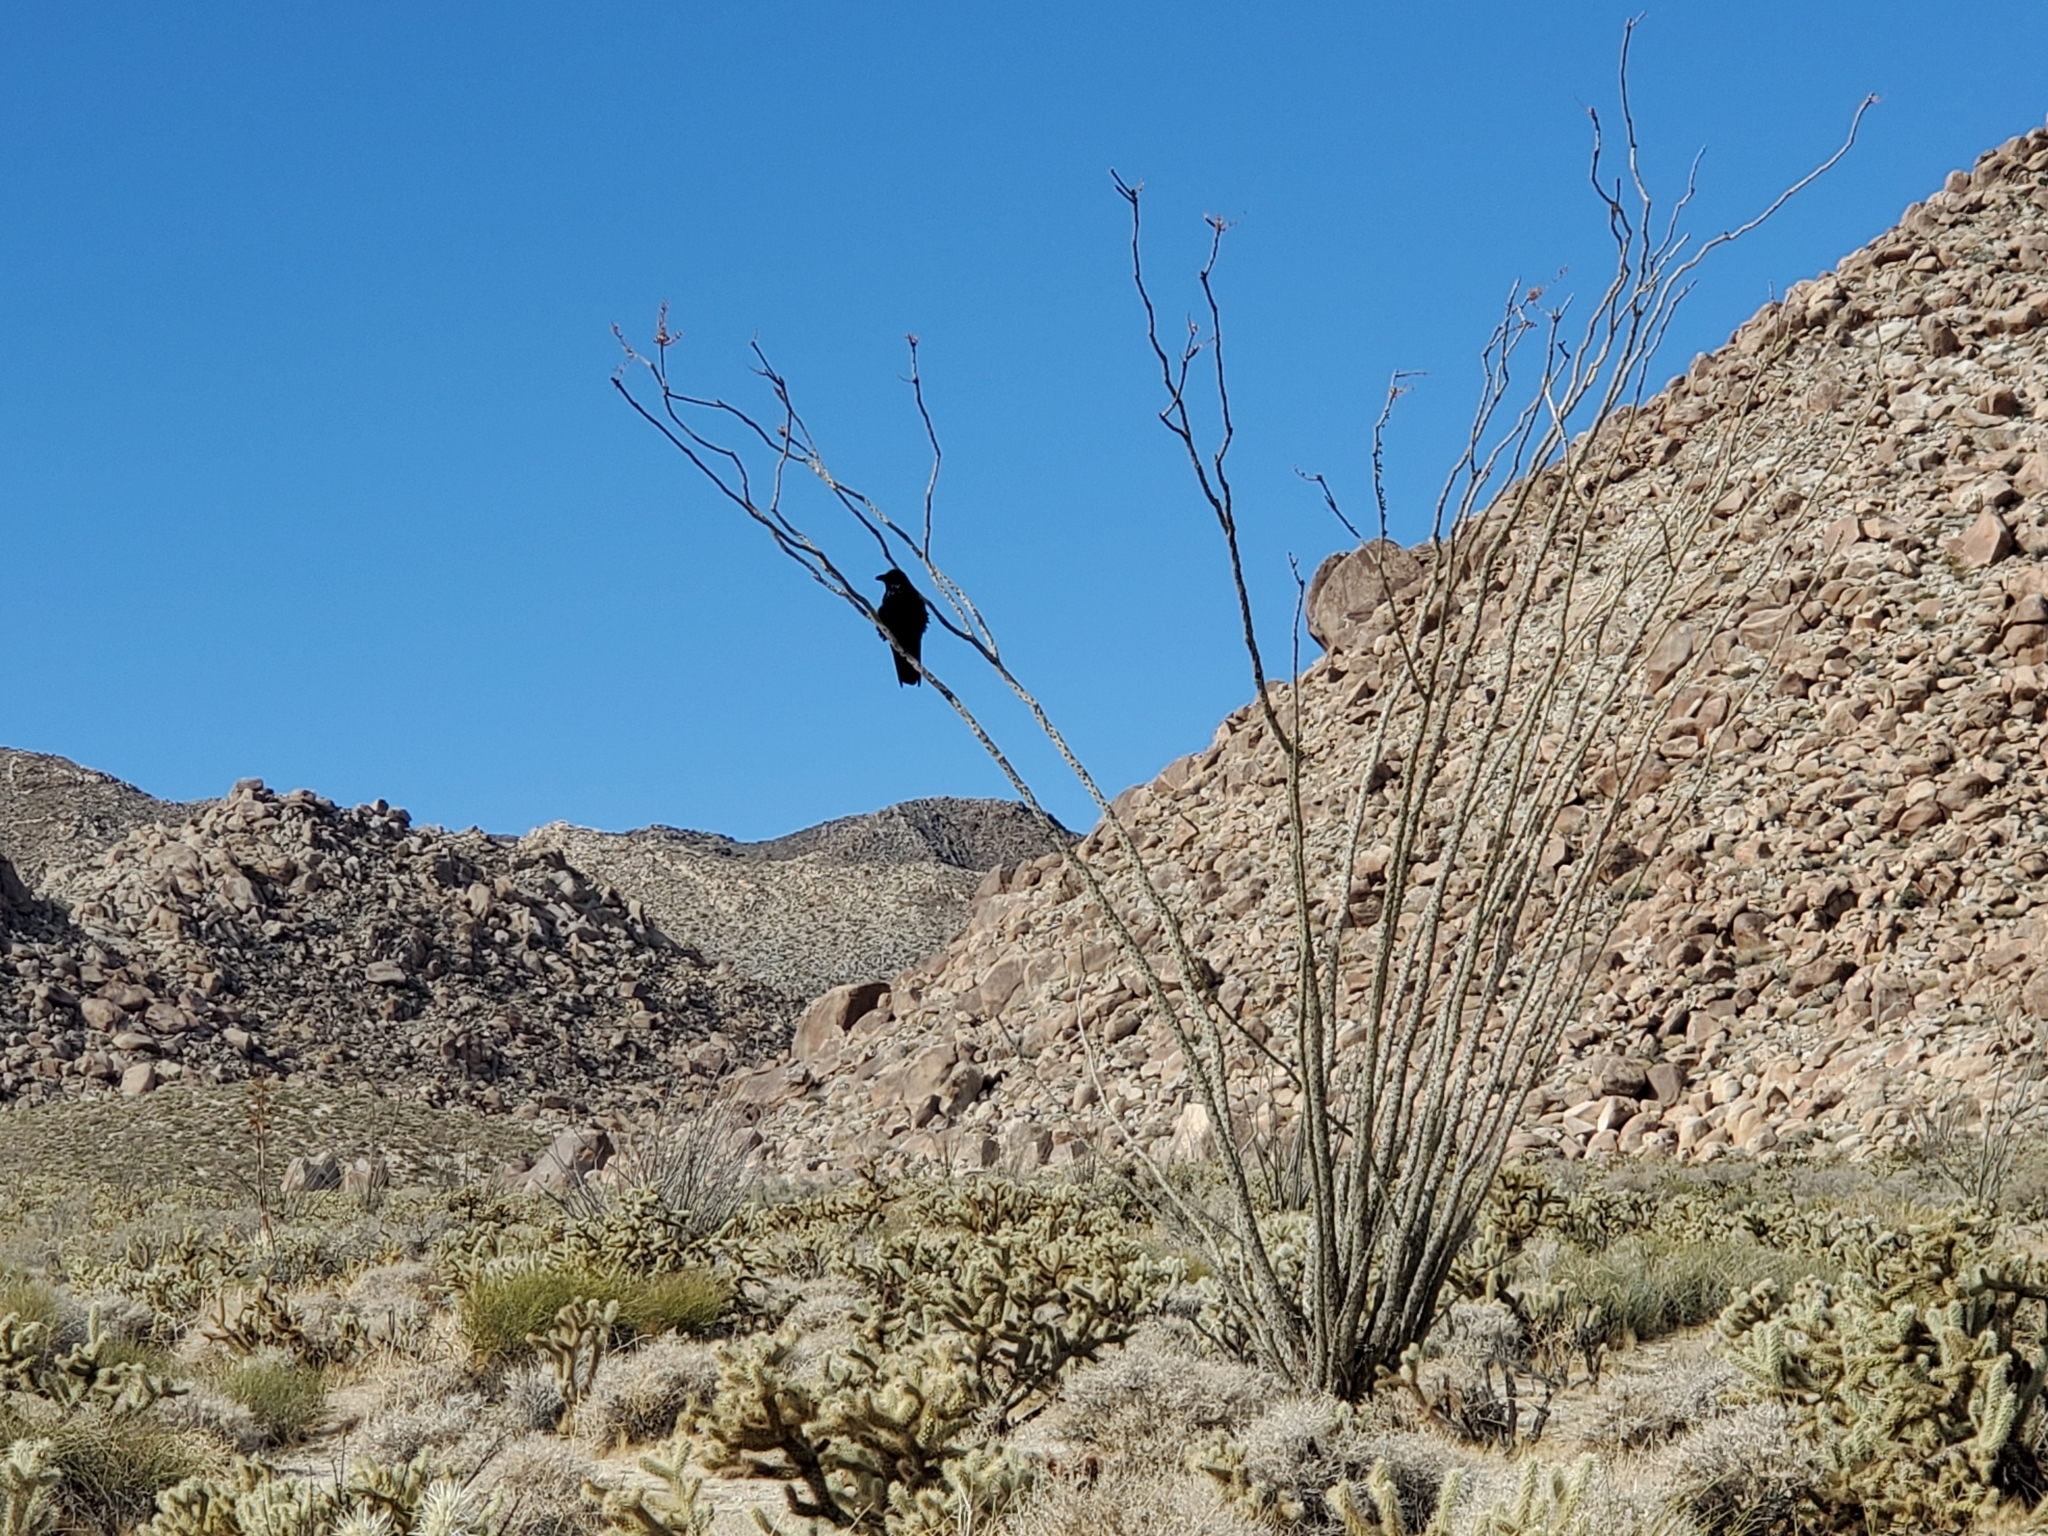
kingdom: Animalia
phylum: Chordata
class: Aves
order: Passeriformes
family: Corvidae
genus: Corvus
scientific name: Corvus corax
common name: Common raven
